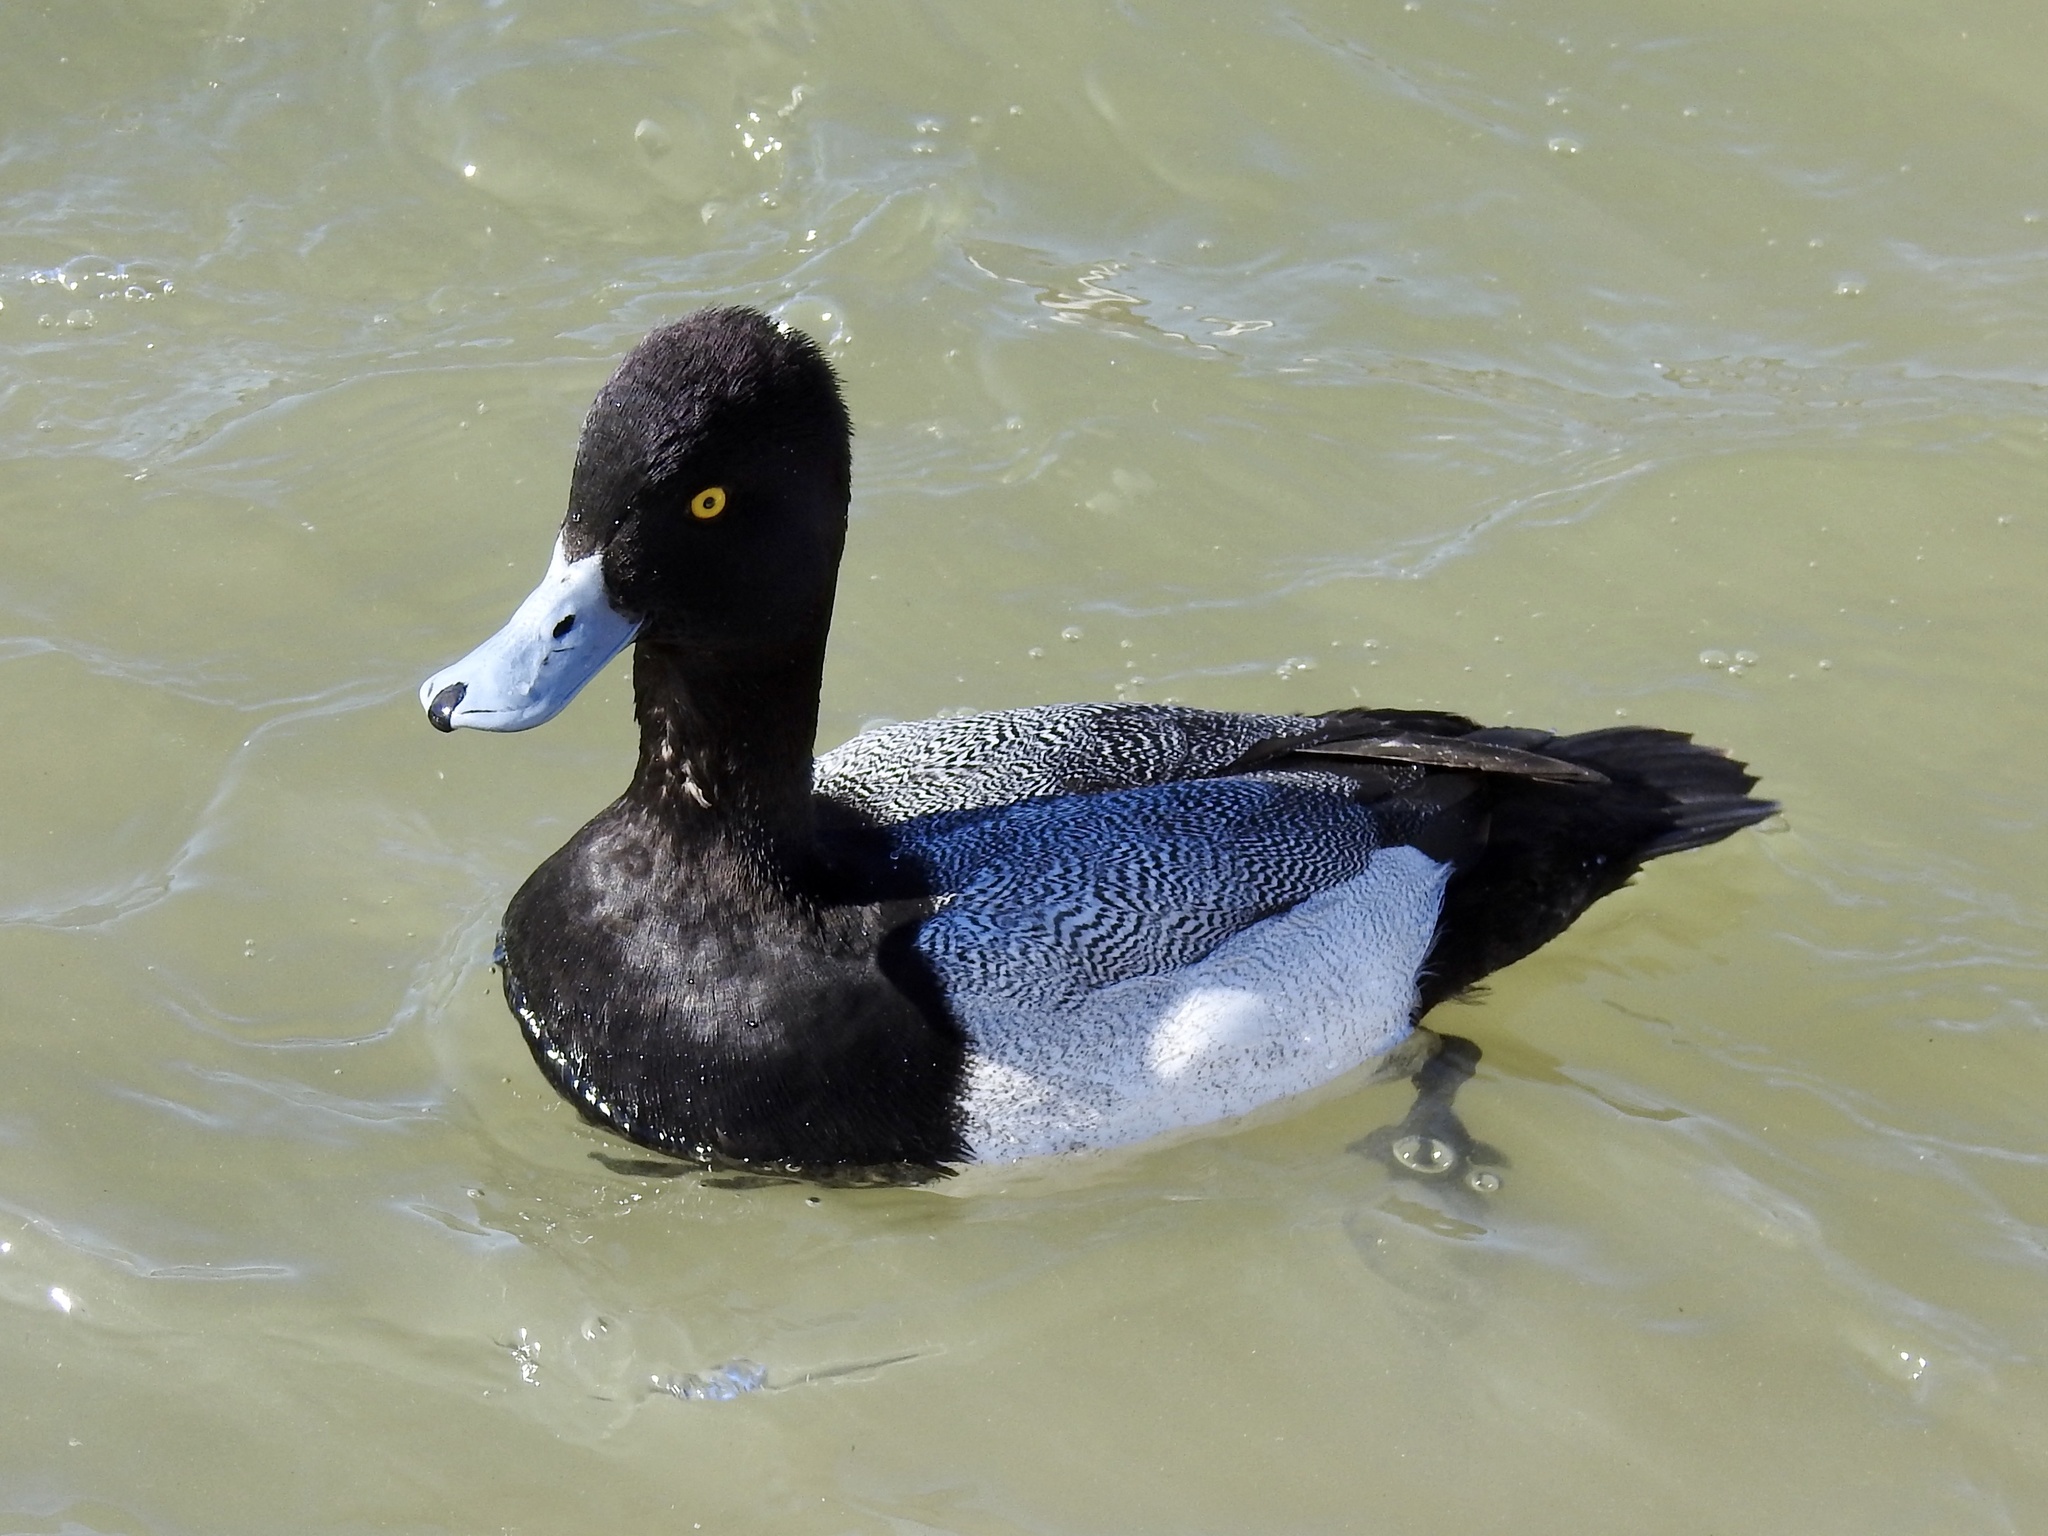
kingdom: Animalia
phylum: Chordata
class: Aves
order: Anseriformes
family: Anatidae
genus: Aythya
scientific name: Aythya affinis
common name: Lesser scaup
